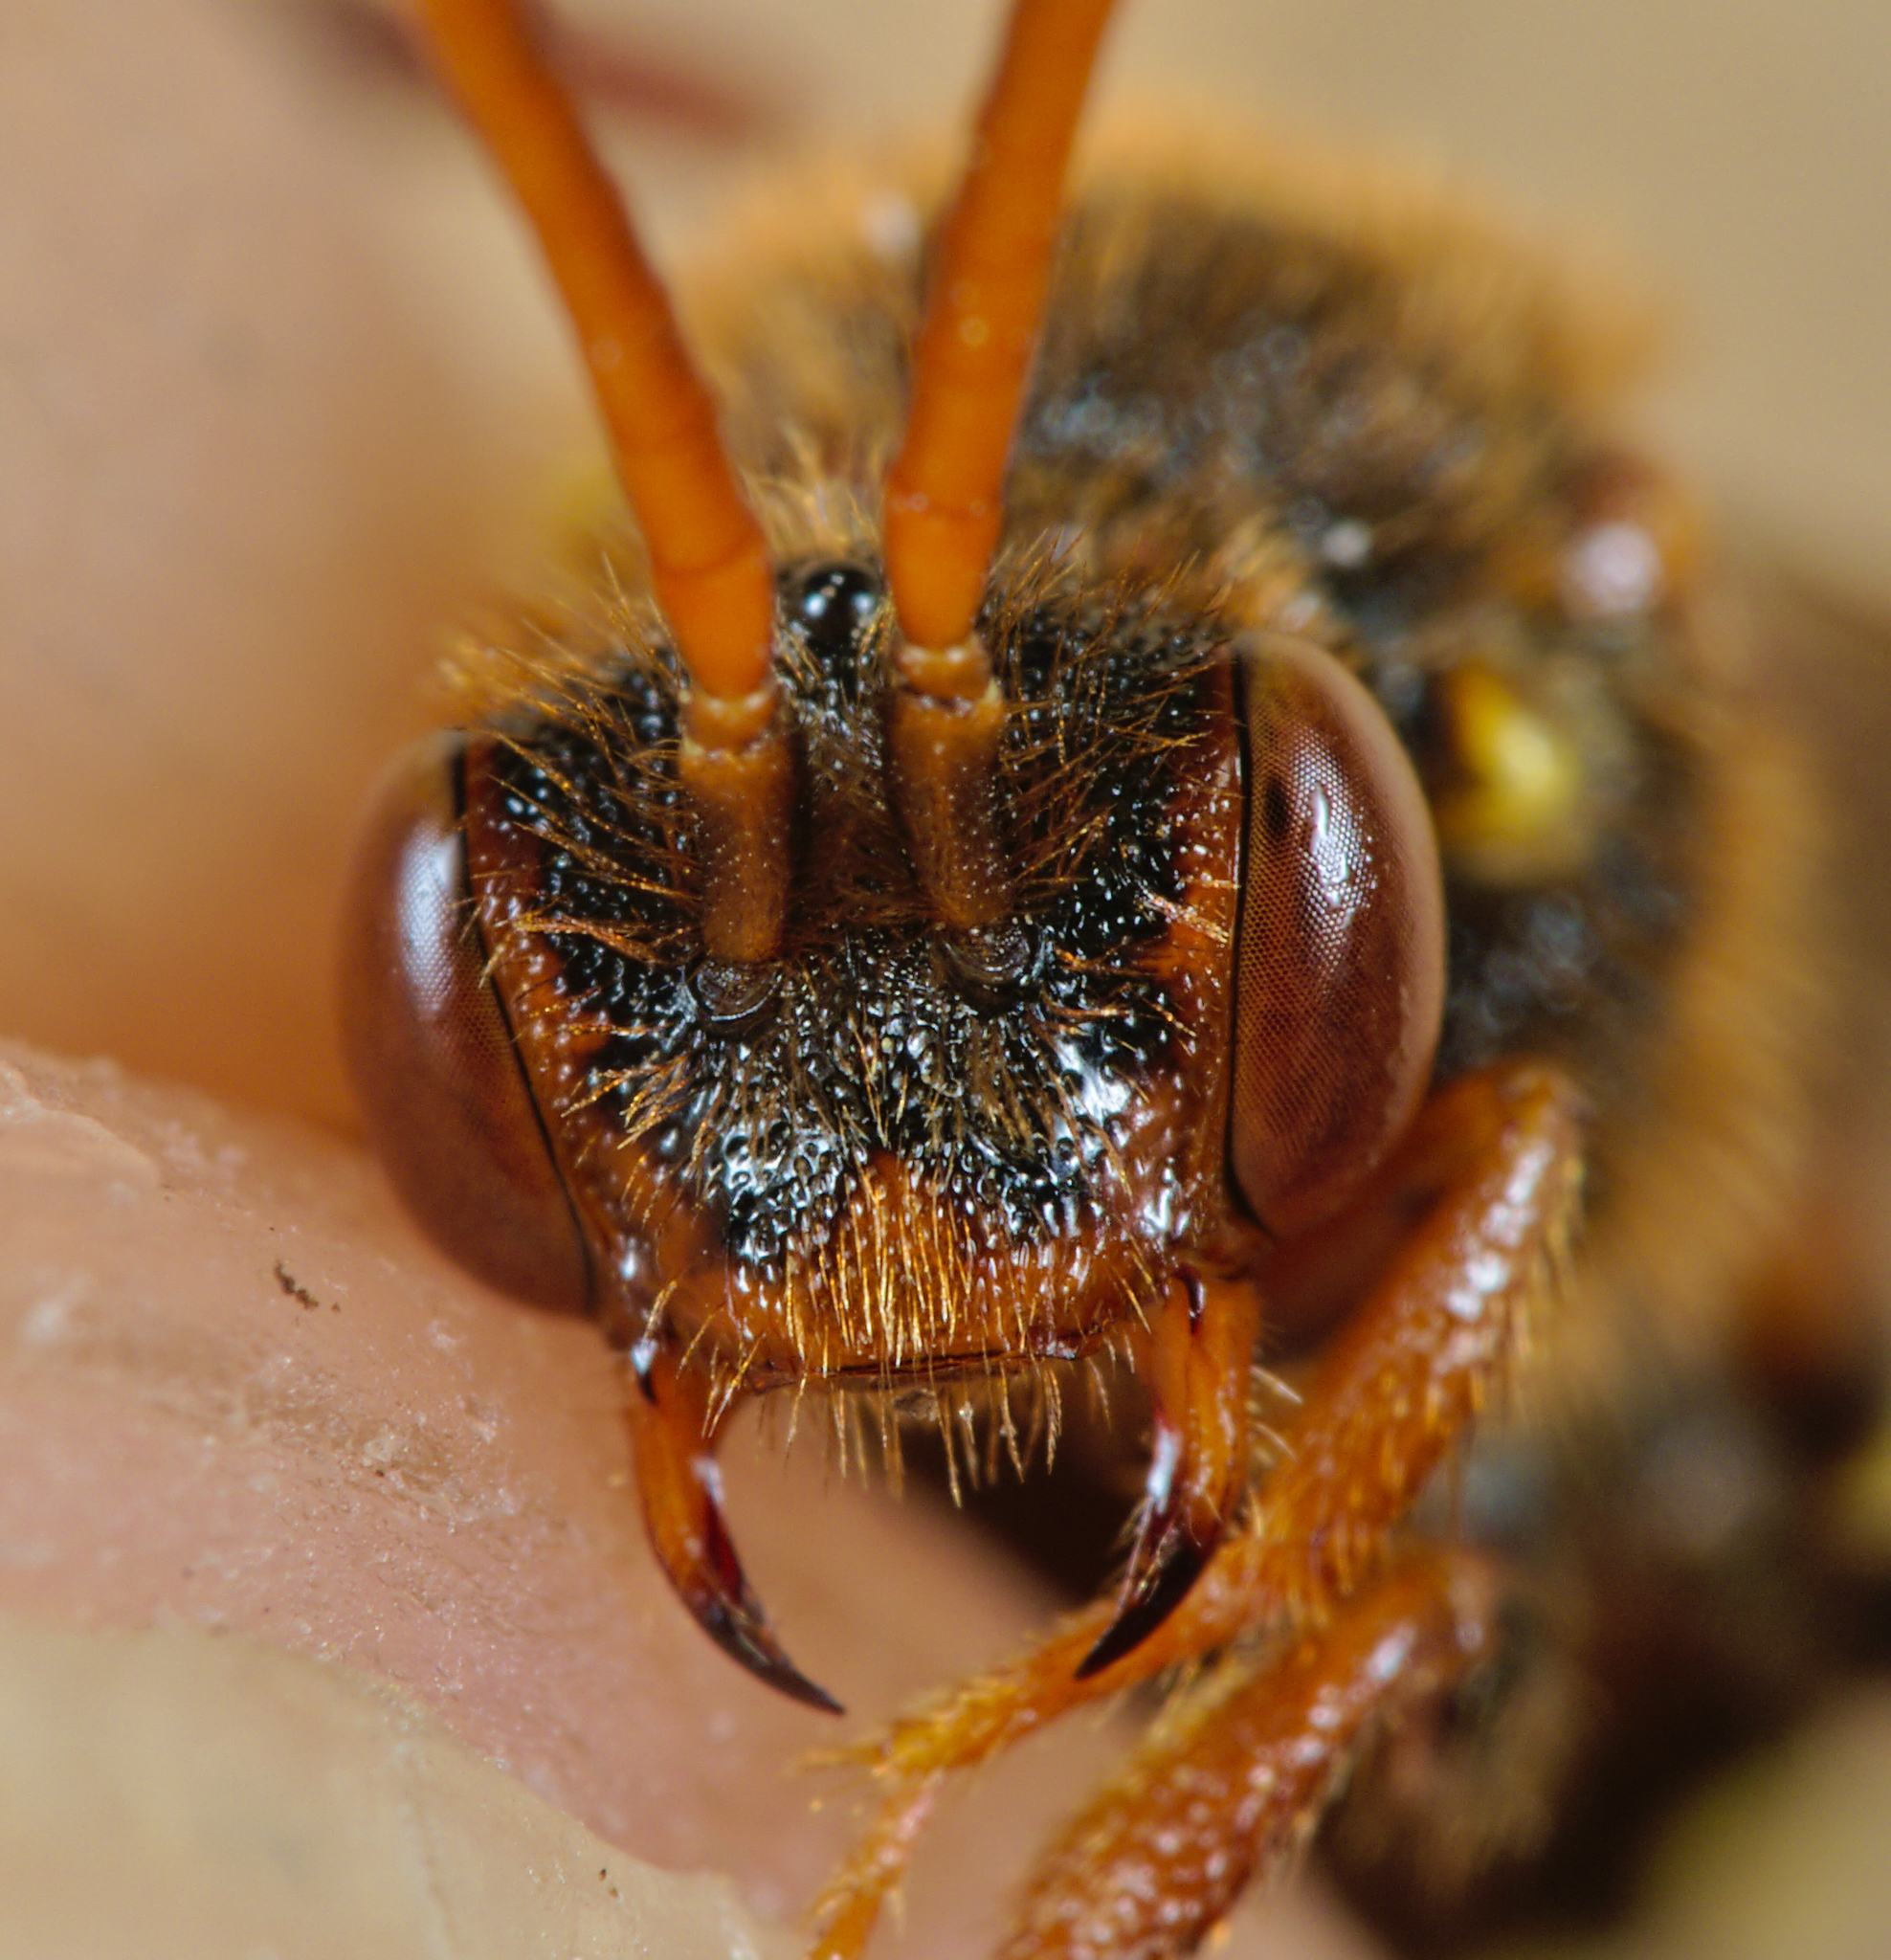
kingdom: Animalia
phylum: Arthropoda
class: Insecta
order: Hymenoptera
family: Apidae
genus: Nomada
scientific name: Nomada lathburiana
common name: Lathbury's nomad bee
